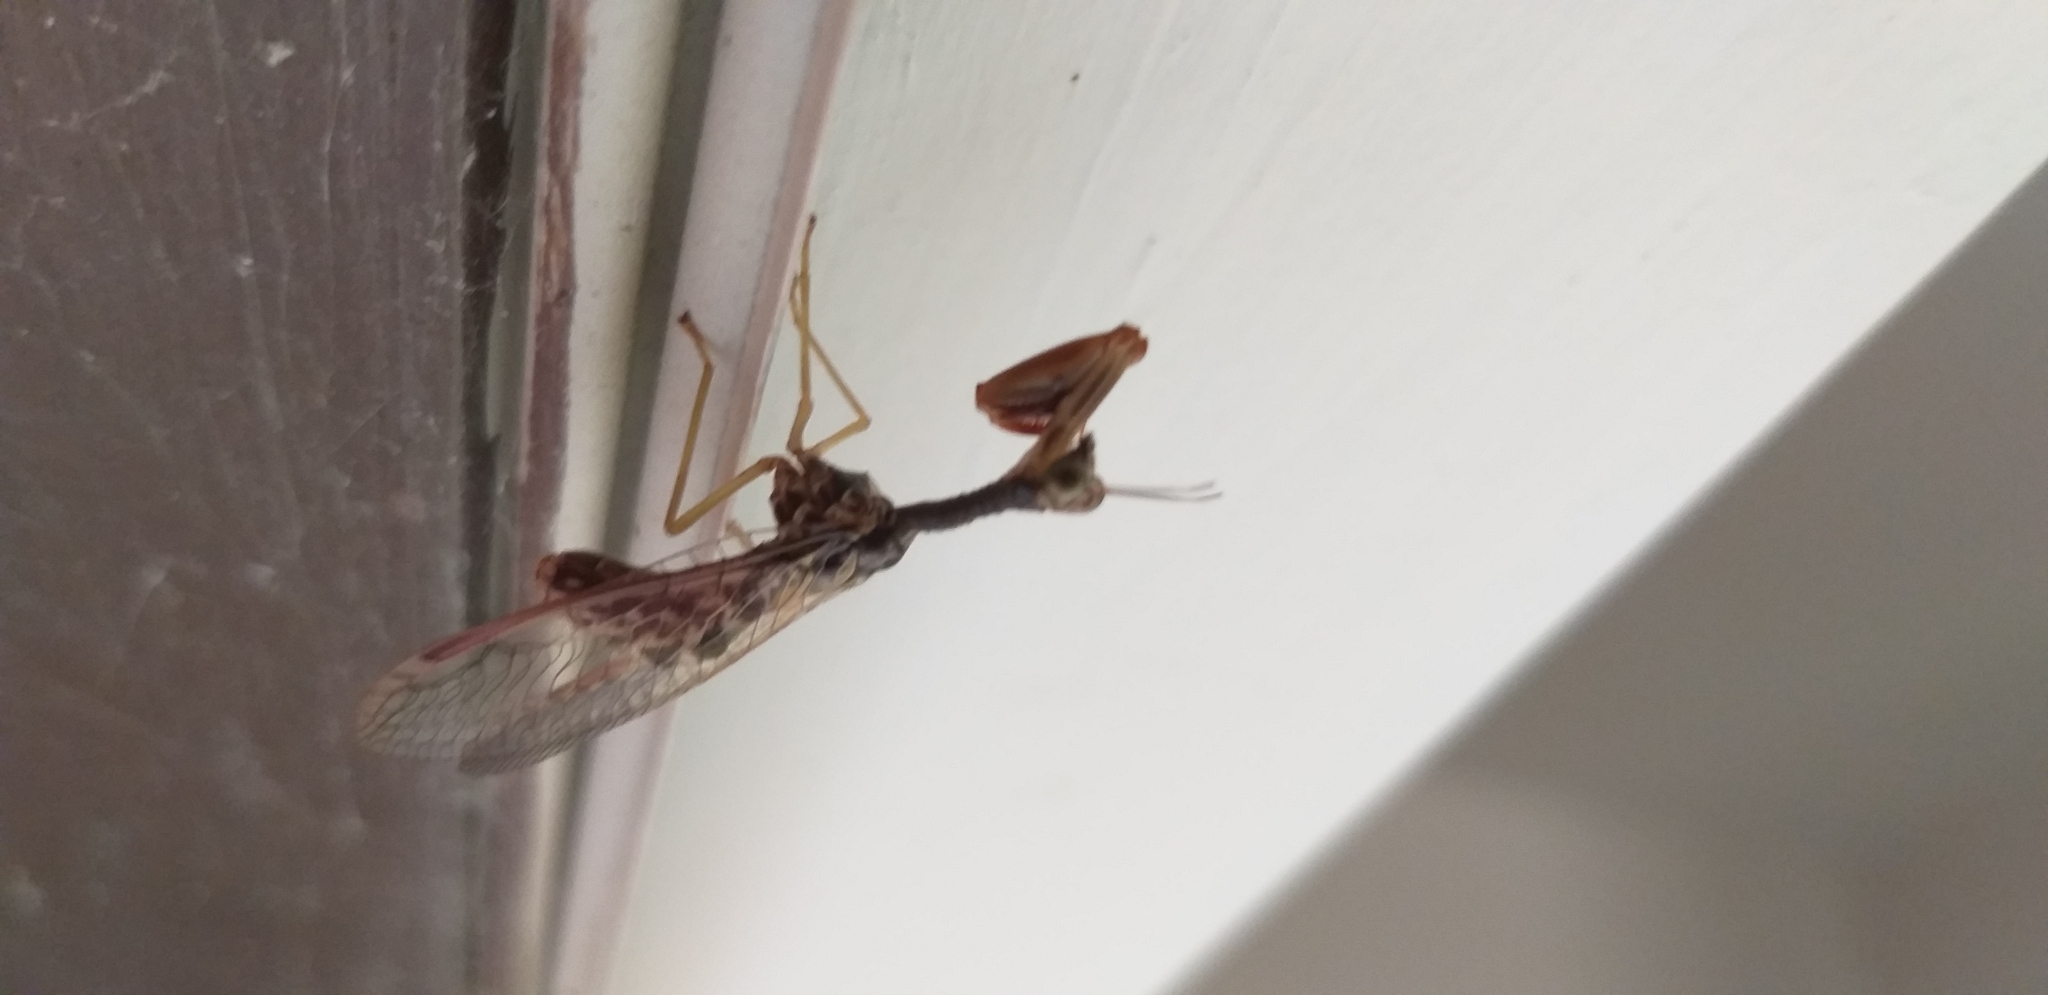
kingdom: Animalia
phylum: Arthropoda
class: Insecta
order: Neuroptera
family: Mantispidae
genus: Dicromantispa
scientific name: Dicromantispa sayi
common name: Say's mantidfly
